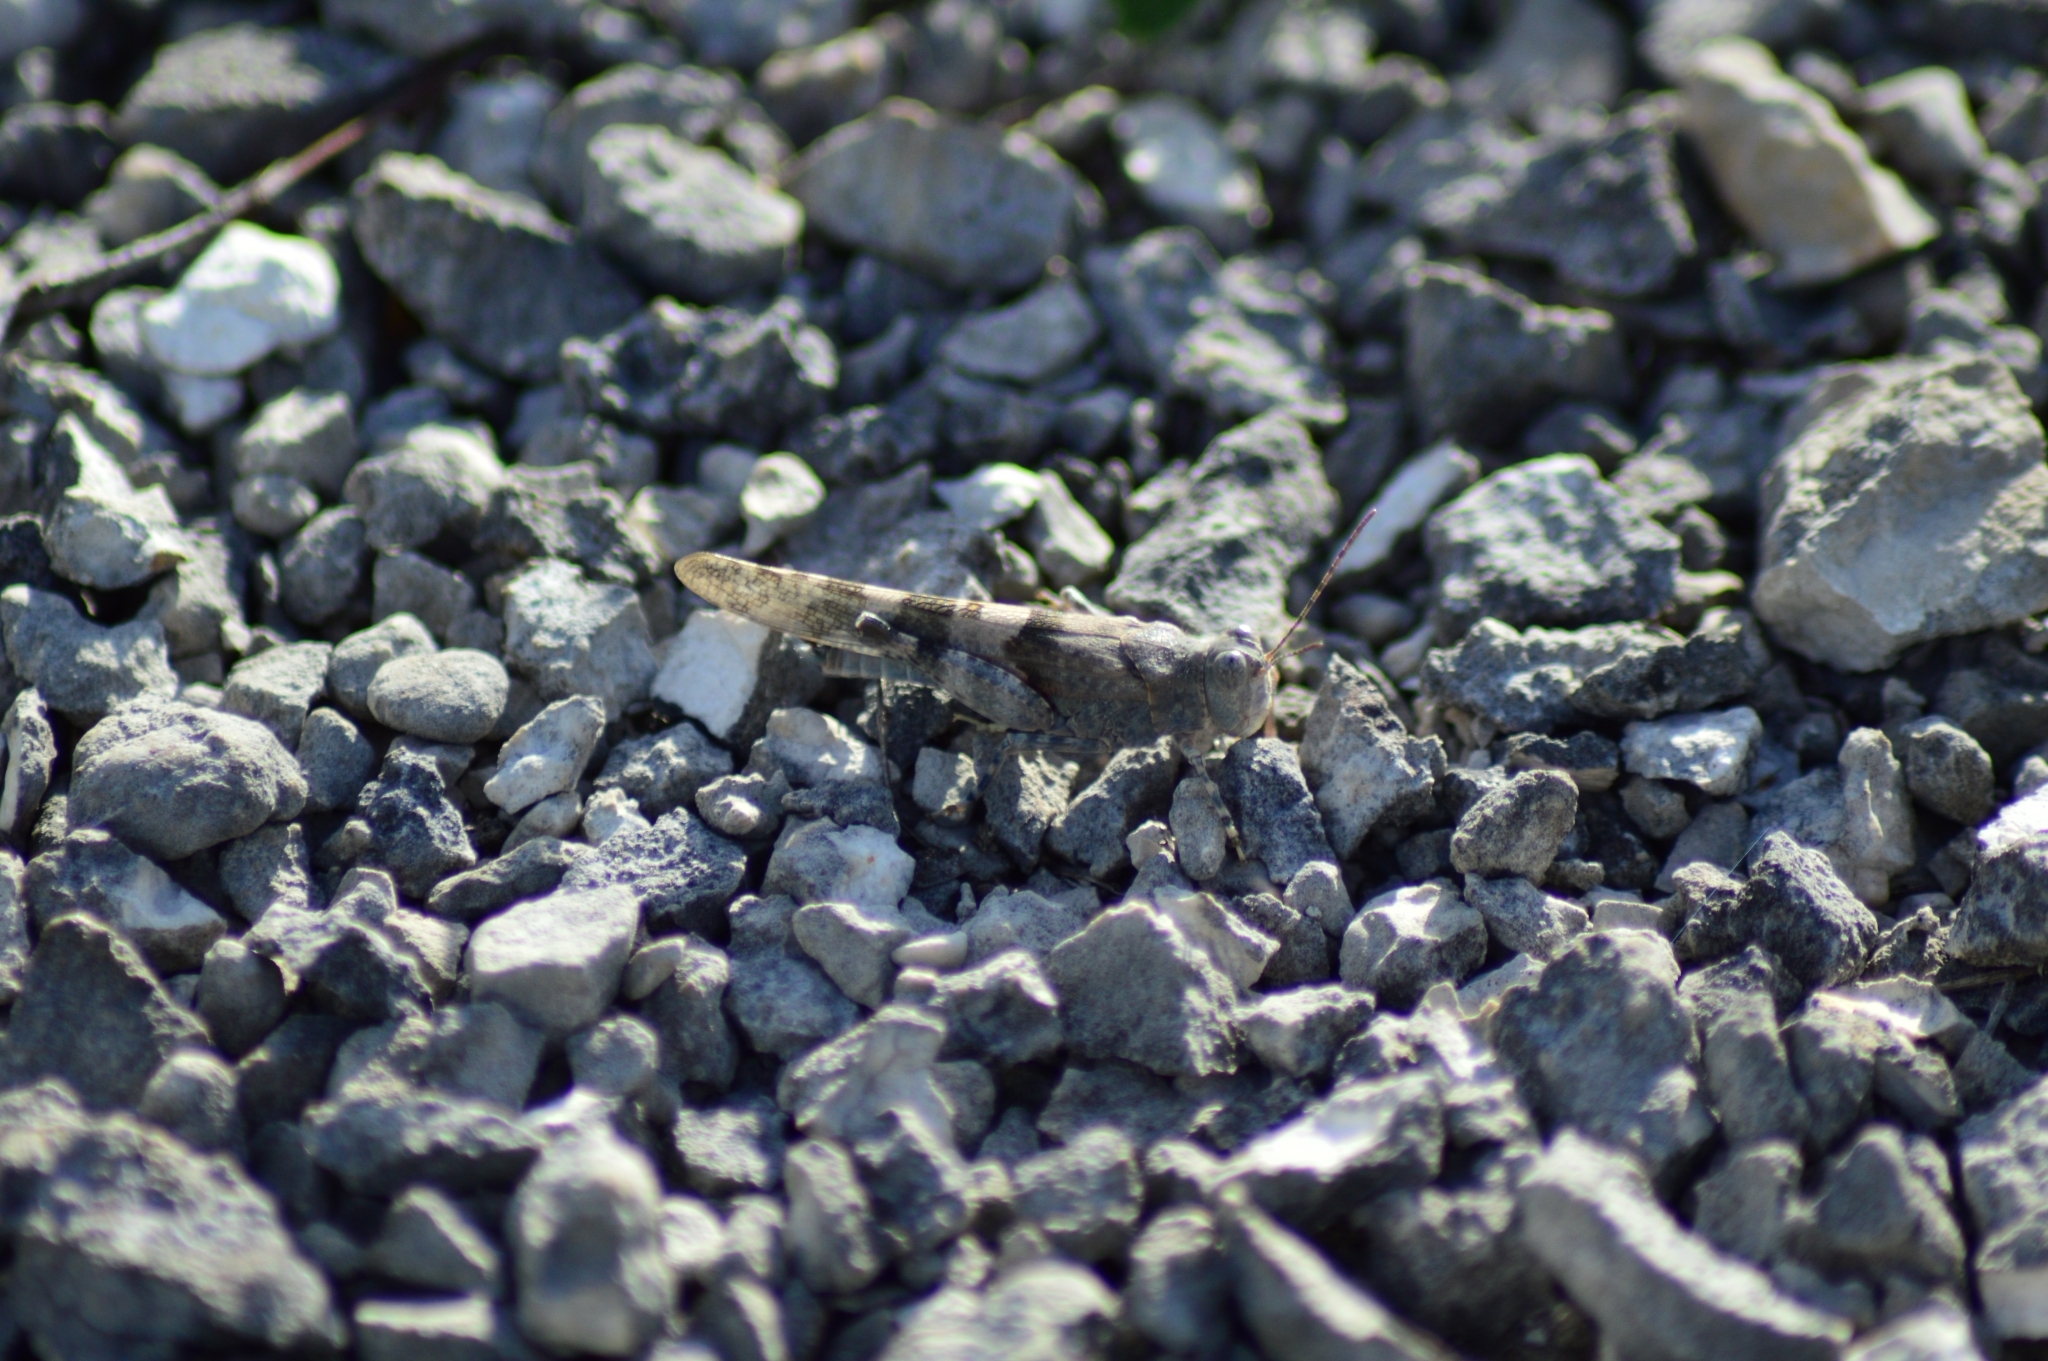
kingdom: Animalia
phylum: Arthropoda
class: Insecta
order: Orthoptera
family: Acrididae
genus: Sphingonotus
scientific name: Sphingonotus caerulans
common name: Blue-winged locust
